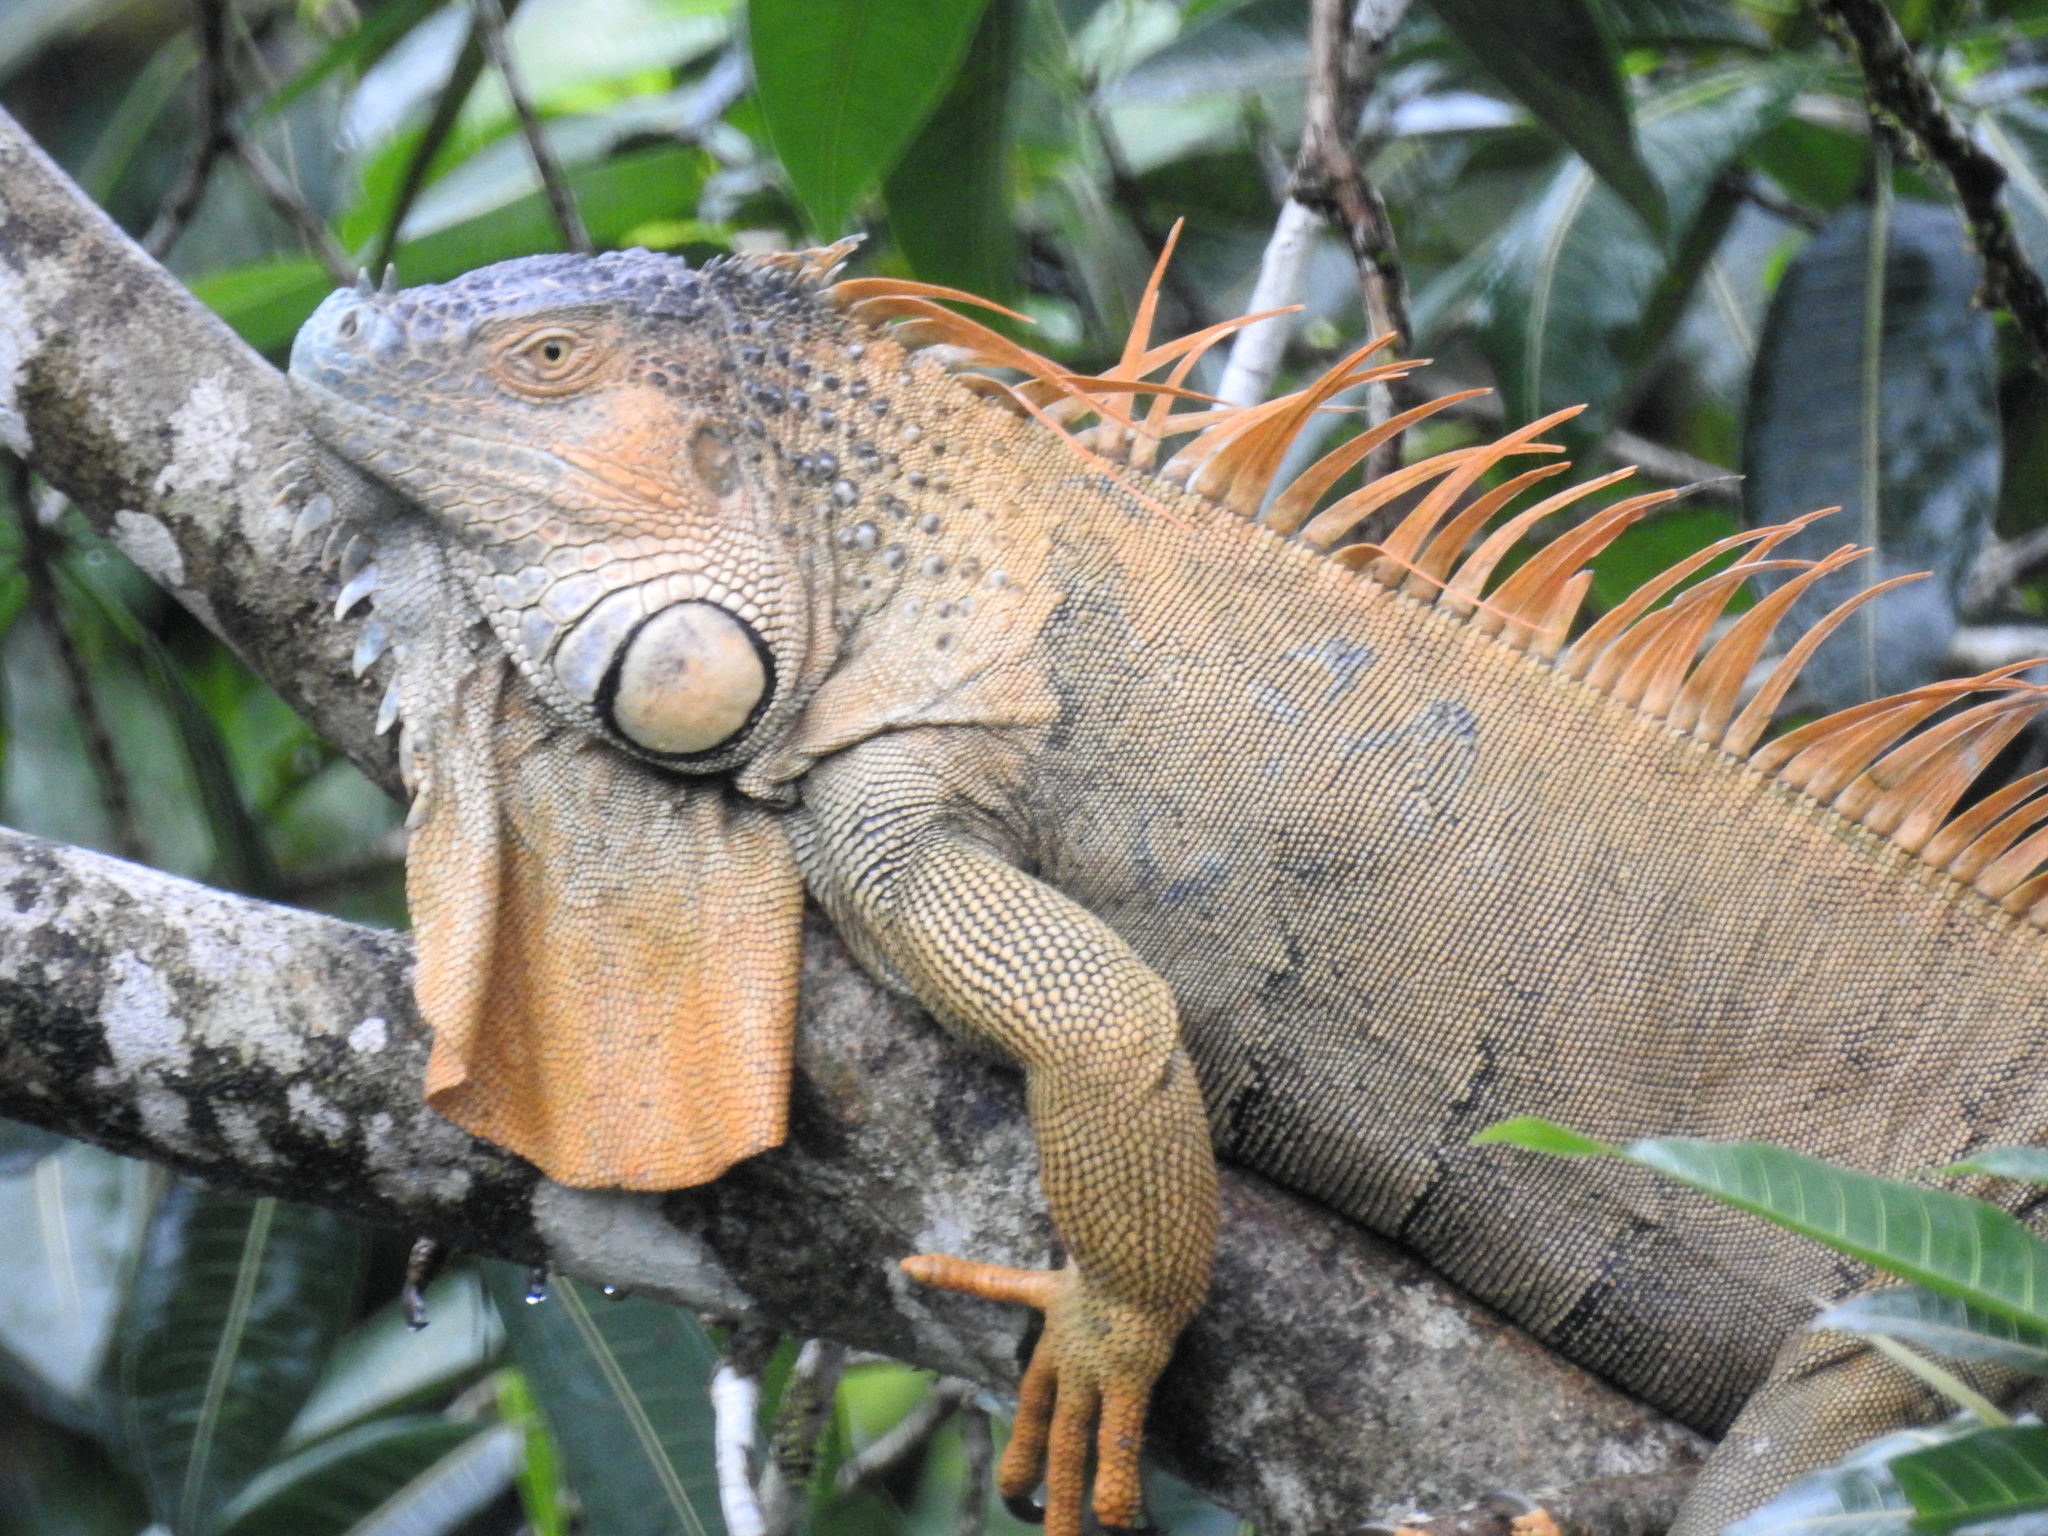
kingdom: Animalia
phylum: Chordata
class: Squamata
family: Iguanidae
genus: Iguana
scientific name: Iguana iguana
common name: Green iguana
